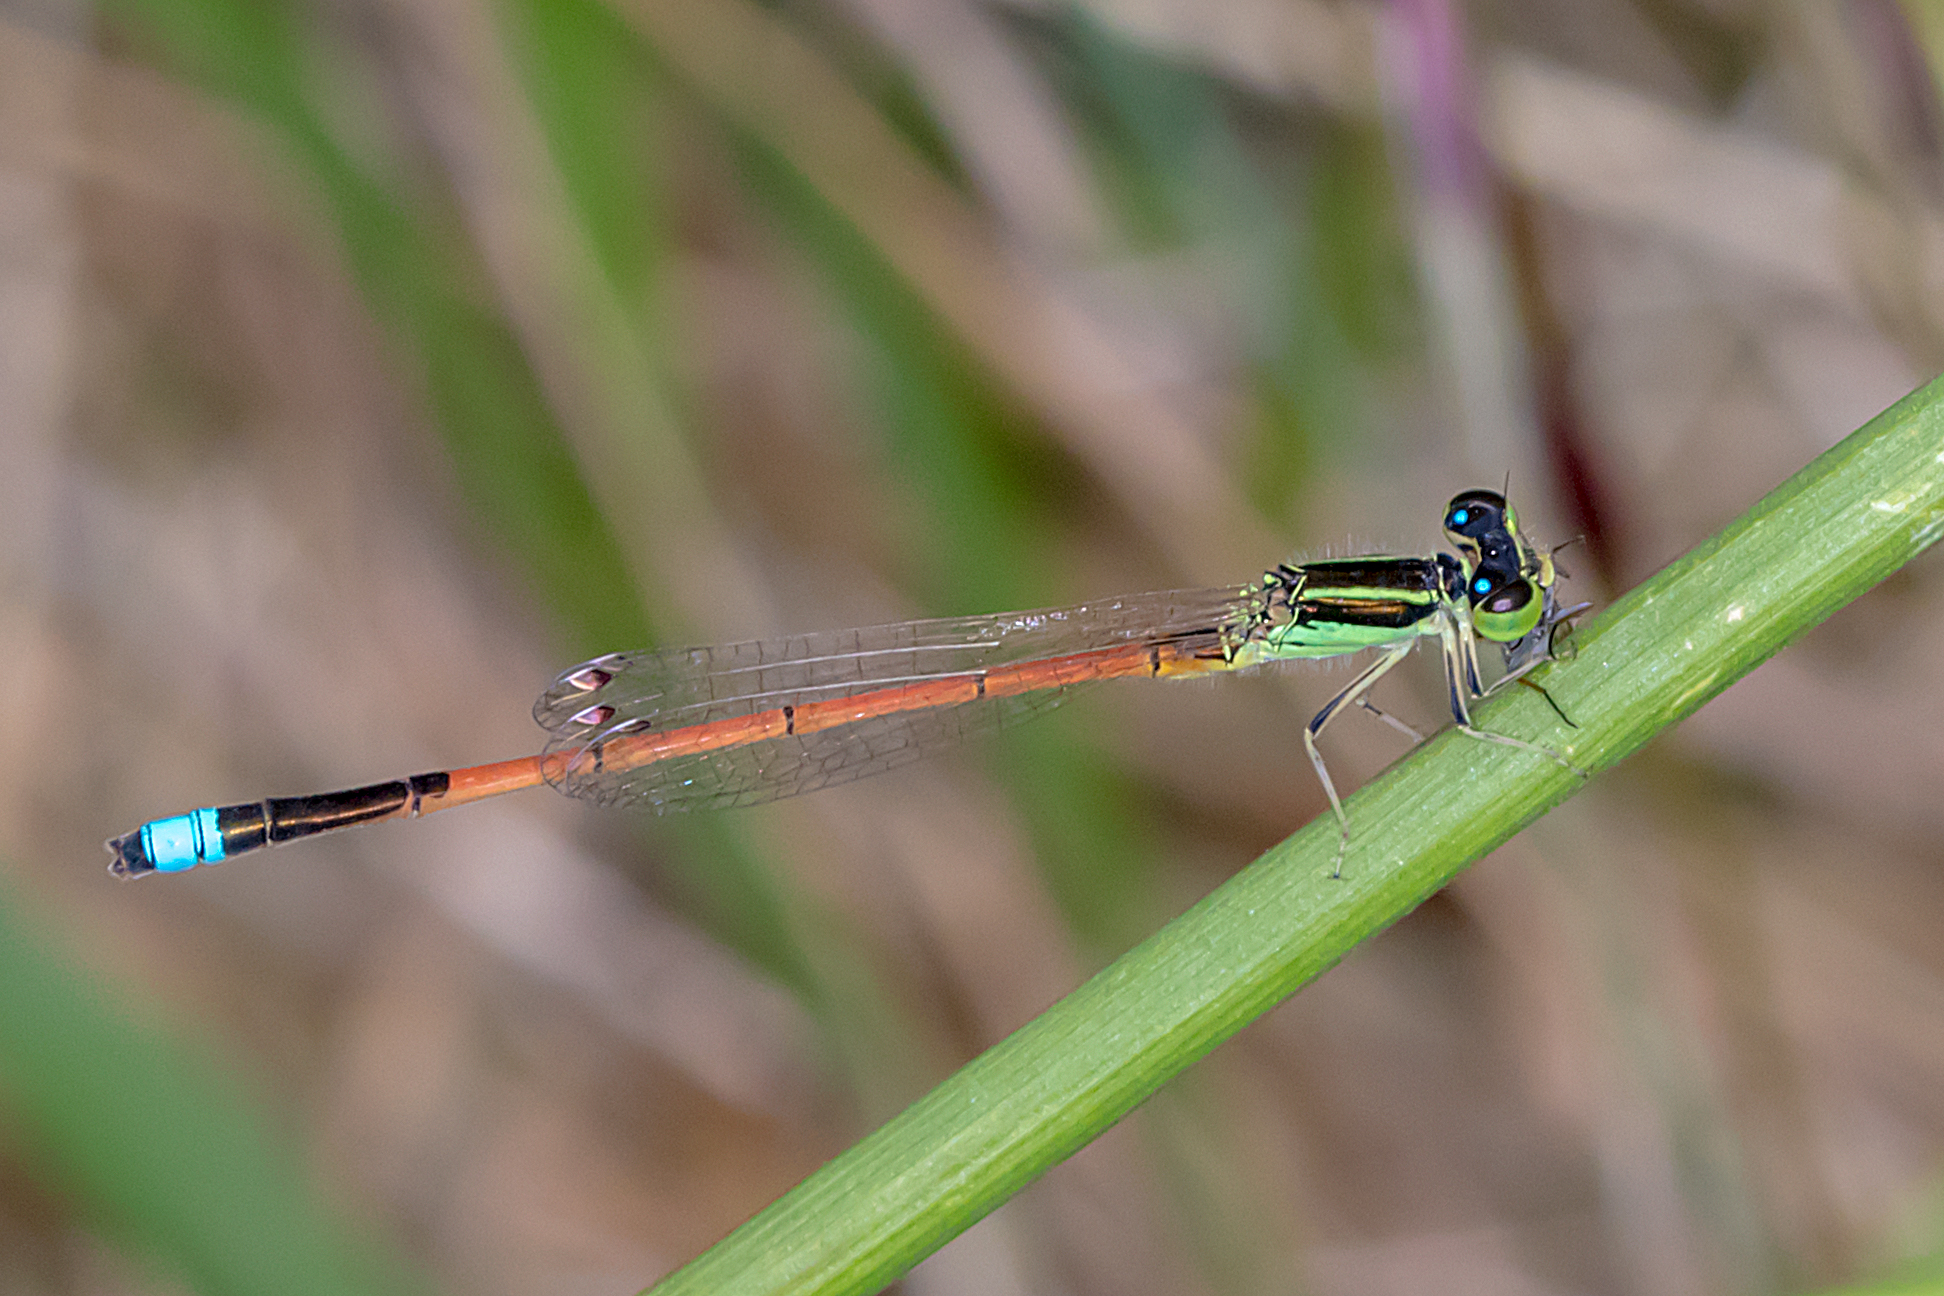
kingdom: Animalia
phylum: Arthropoda
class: Insecta
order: Odonata
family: Coenagrionidae
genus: Ischnura
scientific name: Ischnura aurora
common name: Gossamer damselfly
